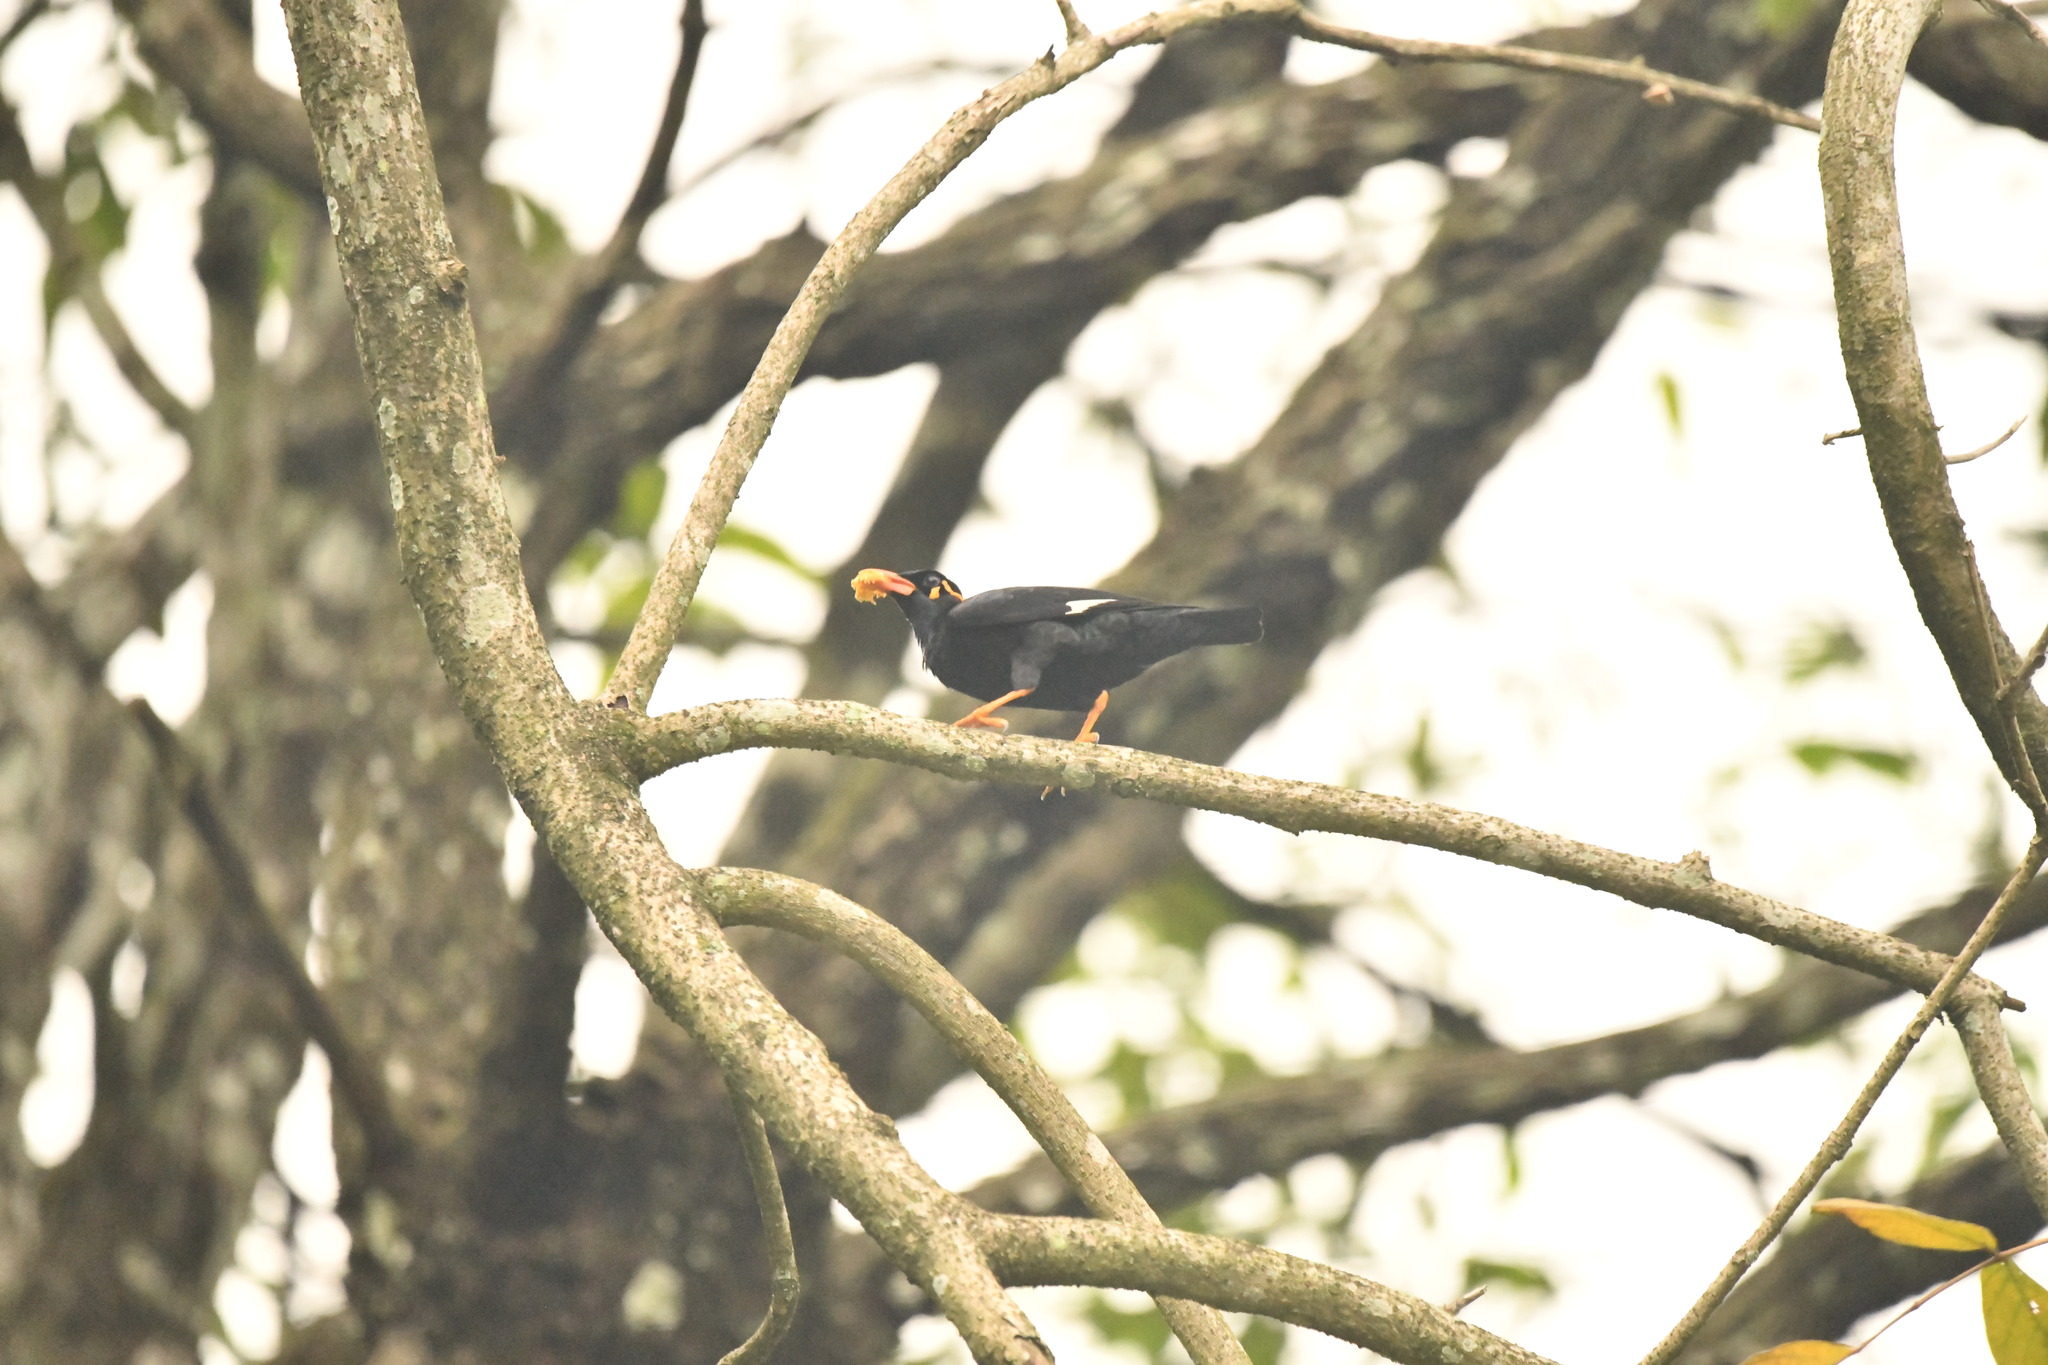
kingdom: Animalia
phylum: Chordata
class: Aves
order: Passeriformes
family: Sturnidae
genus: Gracula
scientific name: Gracula indica
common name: Southern hill myna
